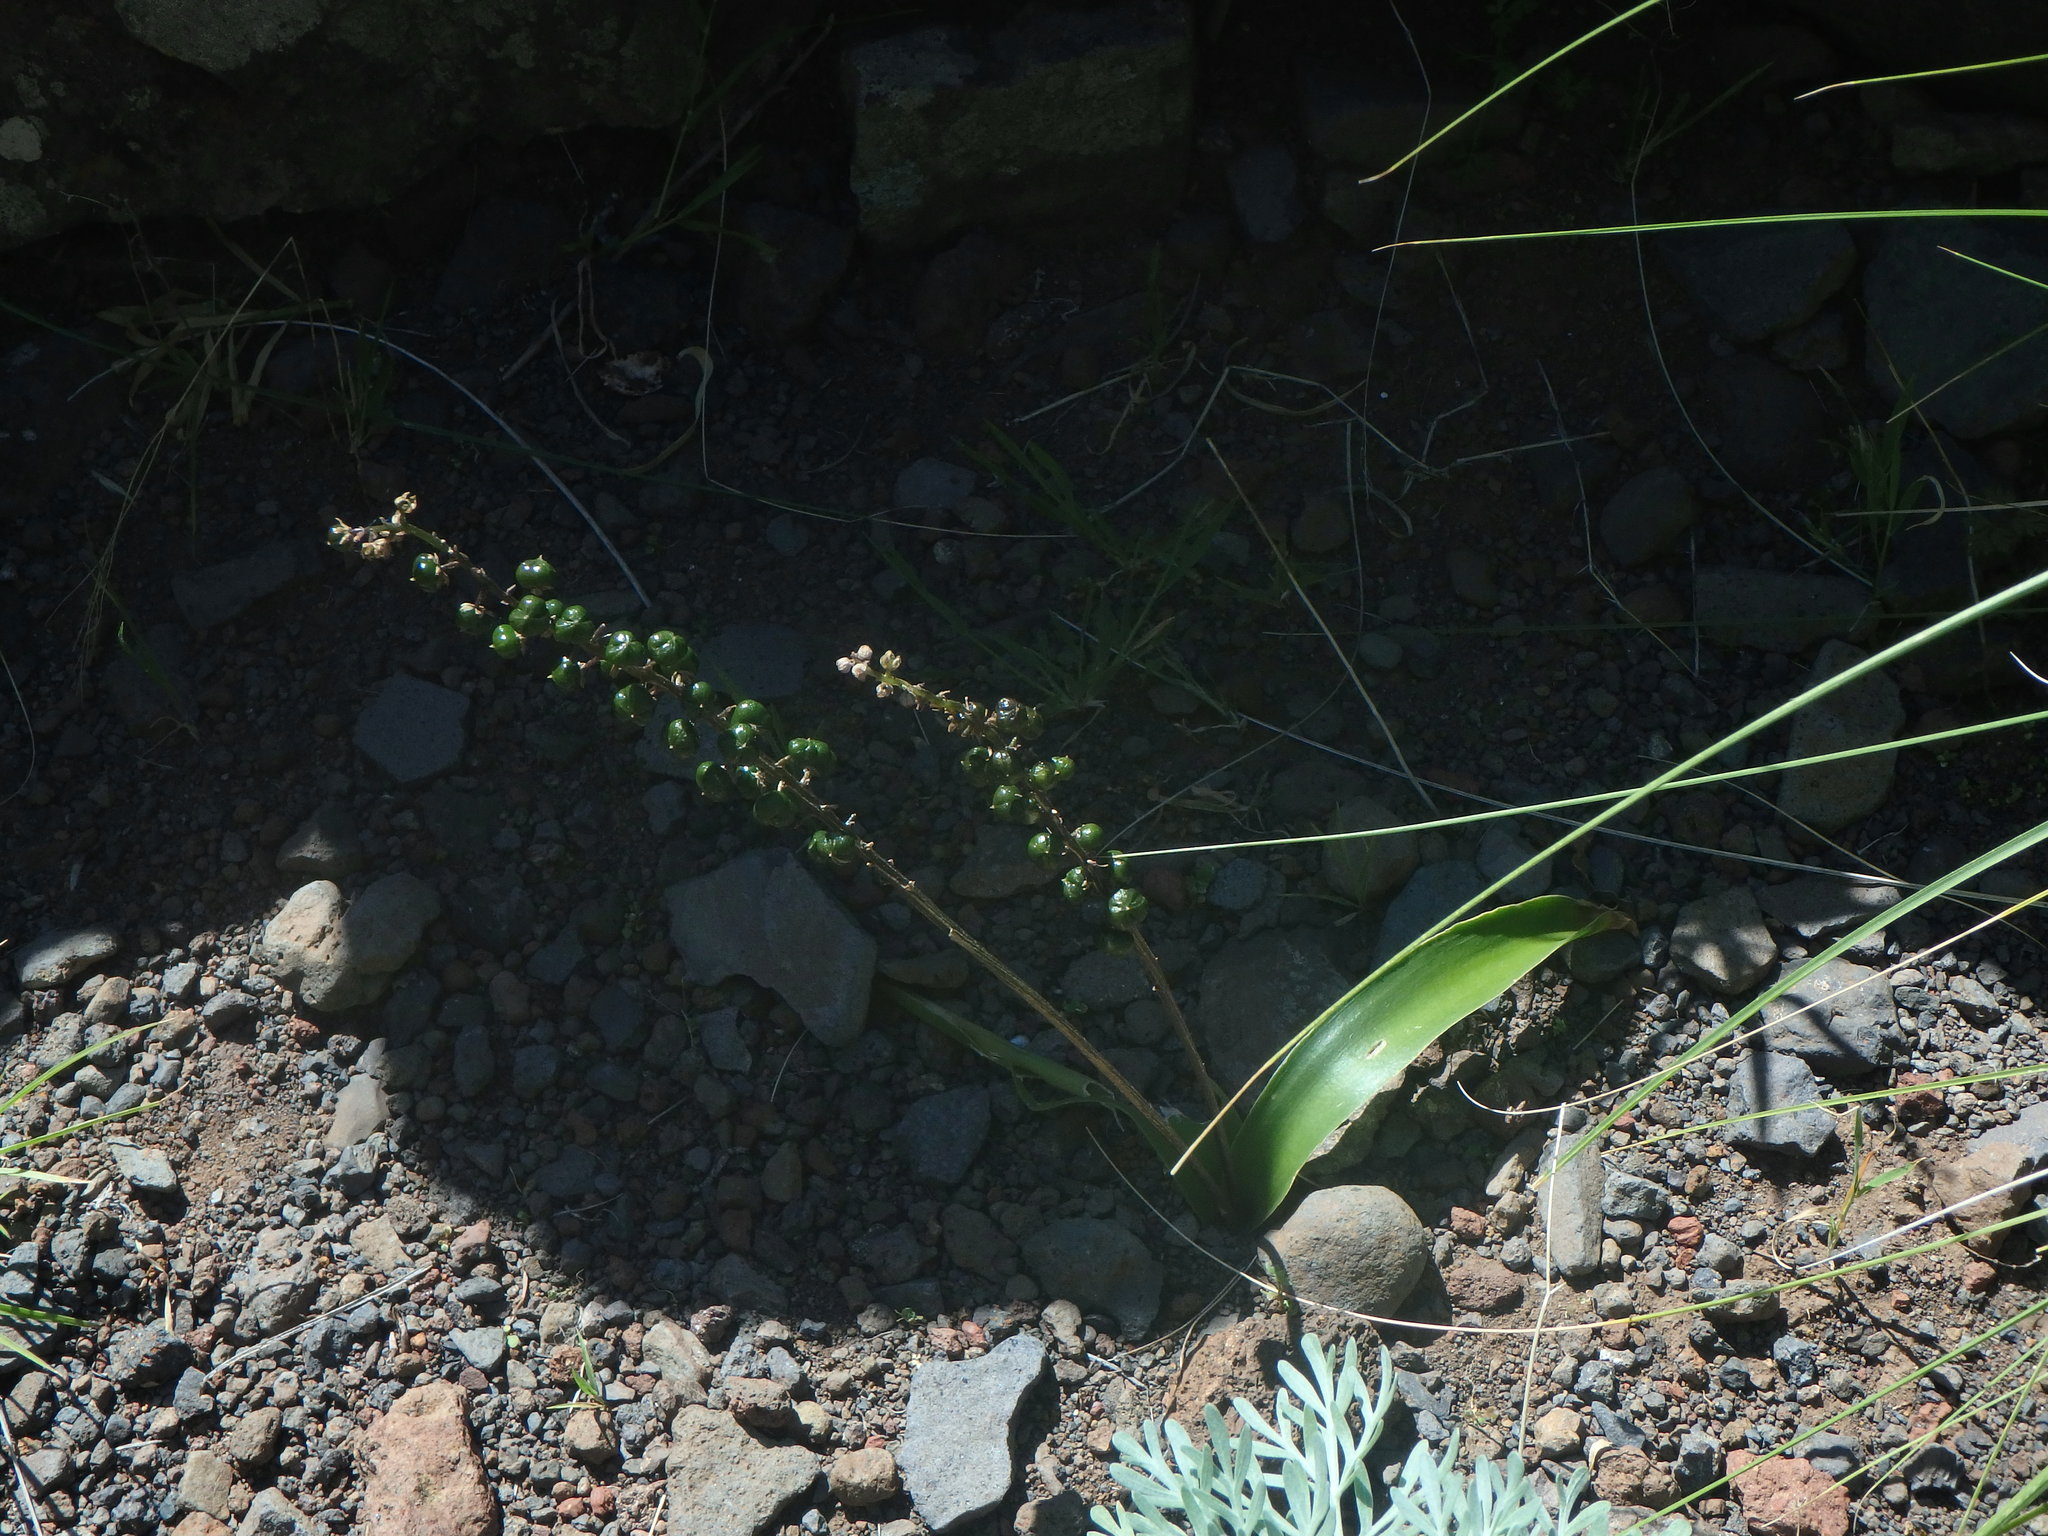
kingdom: Plantae
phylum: Tracheophyta
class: Liliopsida
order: Asparagales
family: Asparagaceae
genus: Scilla
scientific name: Scilla haemorrhoidalis
